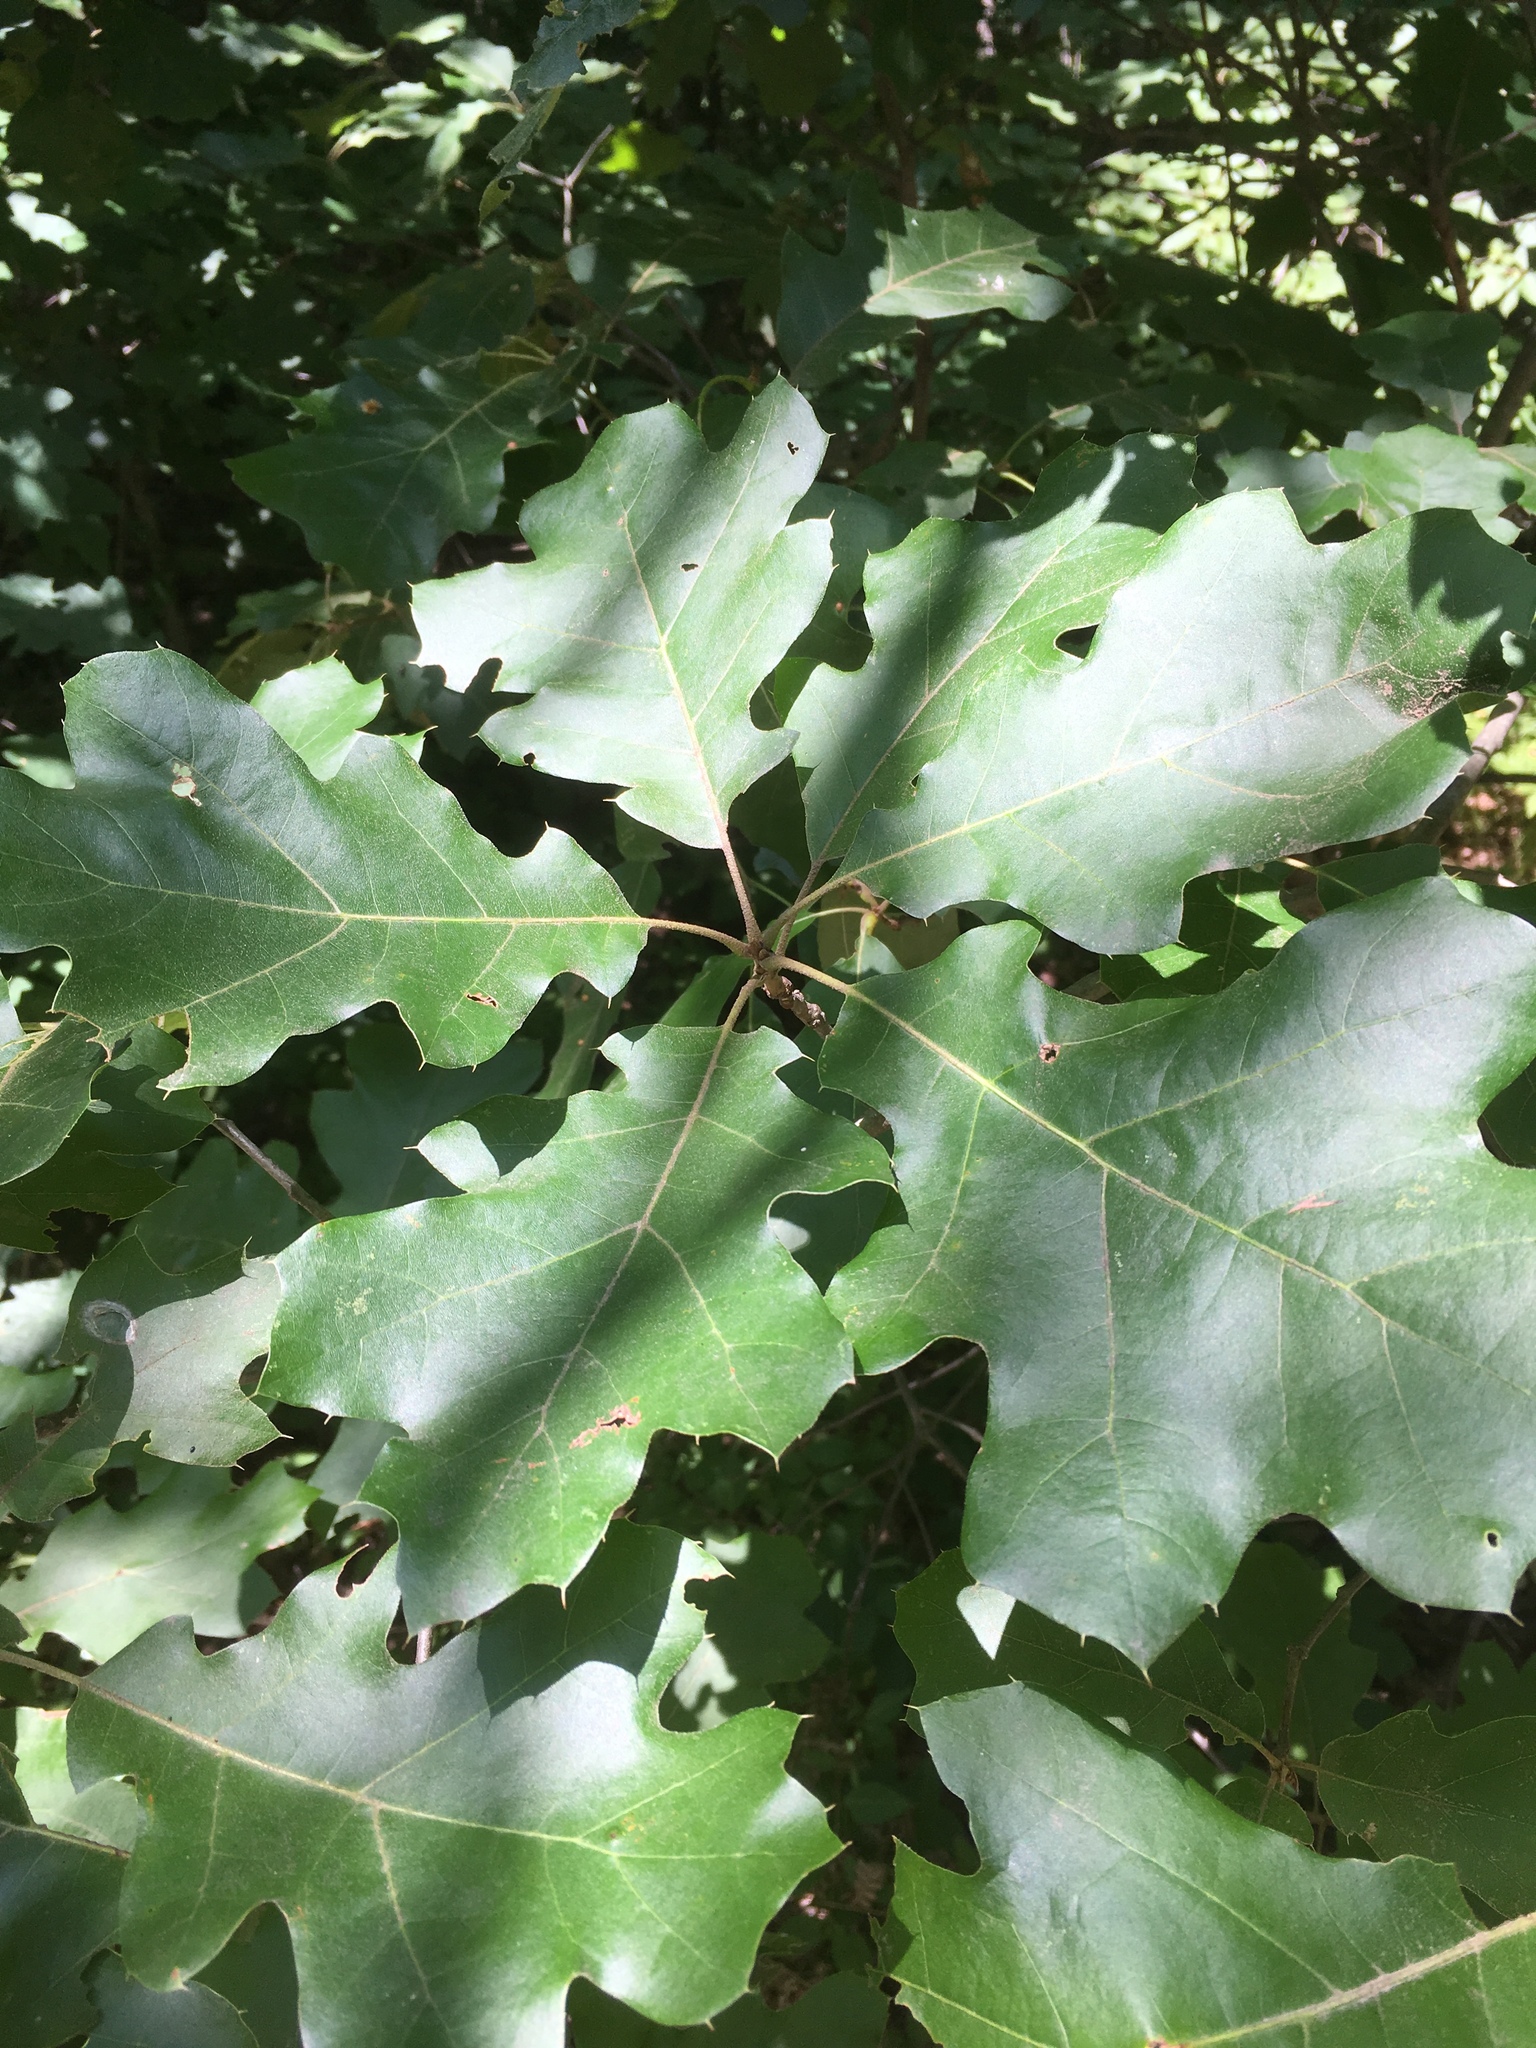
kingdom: Plantae
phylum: Tracheophyta
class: Magnoliopsida
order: Fagales
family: Fagaceae
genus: Quercus
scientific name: Quercus velutina
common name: Black oak
